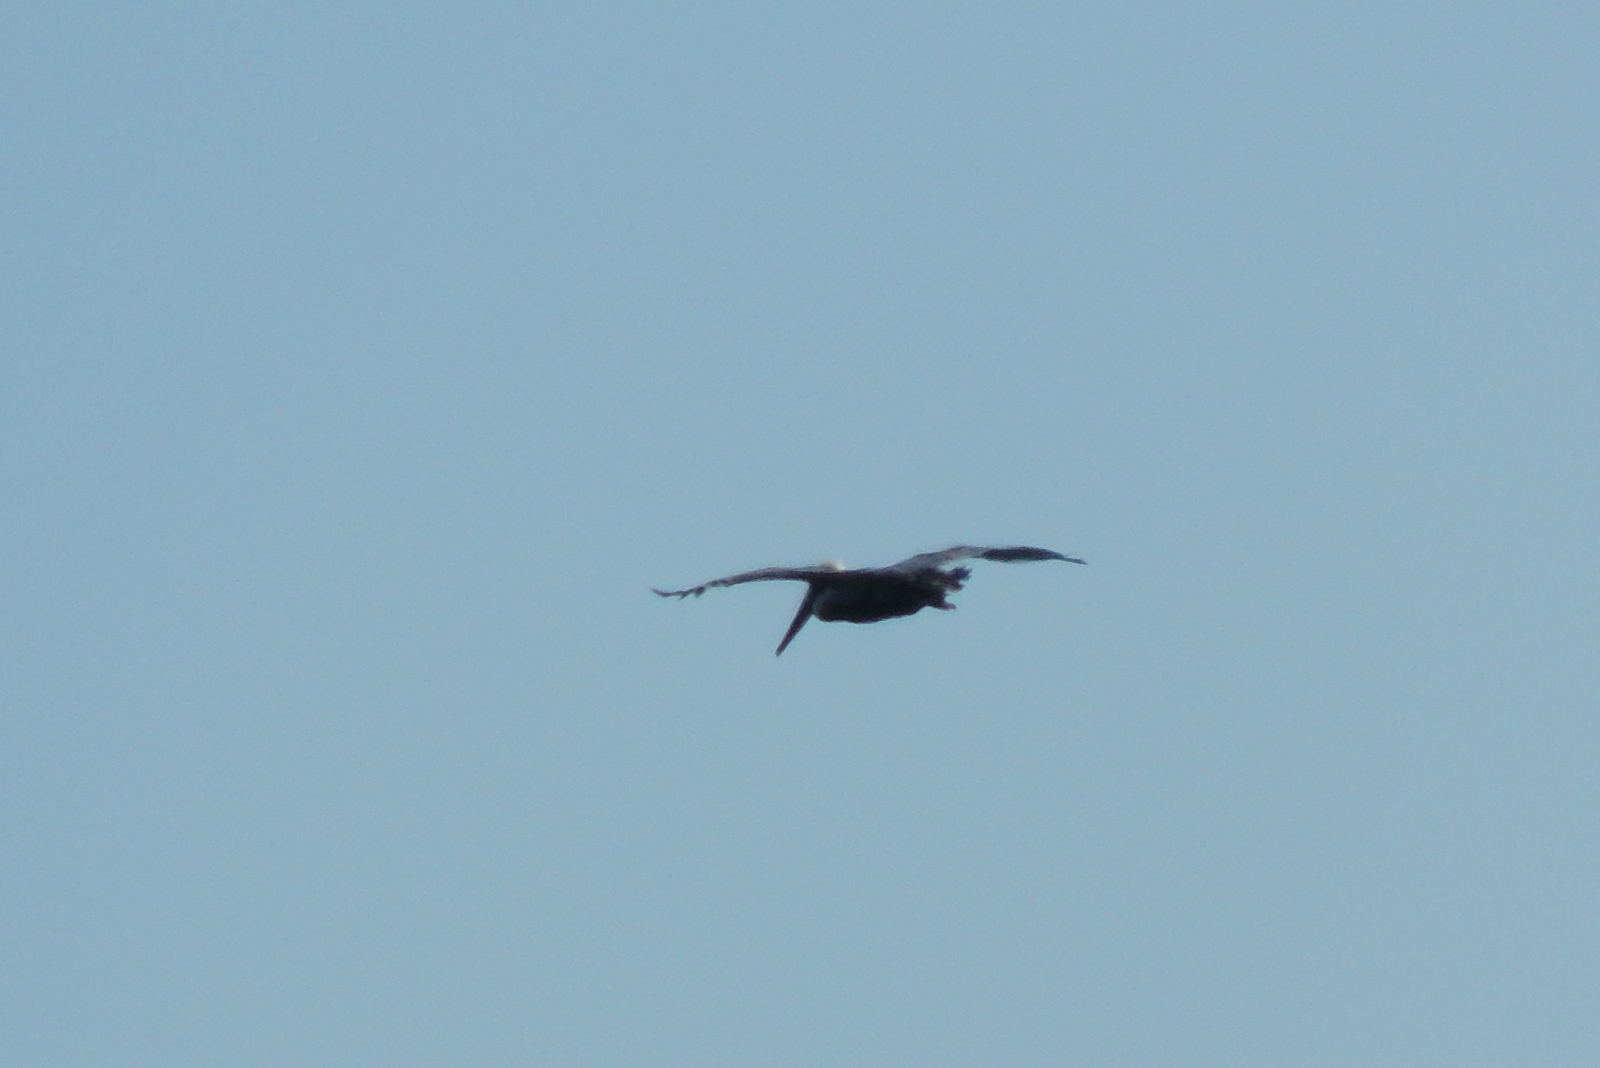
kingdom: Animalia
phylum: Chordata
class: Aves
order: Pelecaniformes
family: Pelecanidae
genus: Pelecanus
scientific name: Pelecanus occidentalis
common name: Brown pelican
